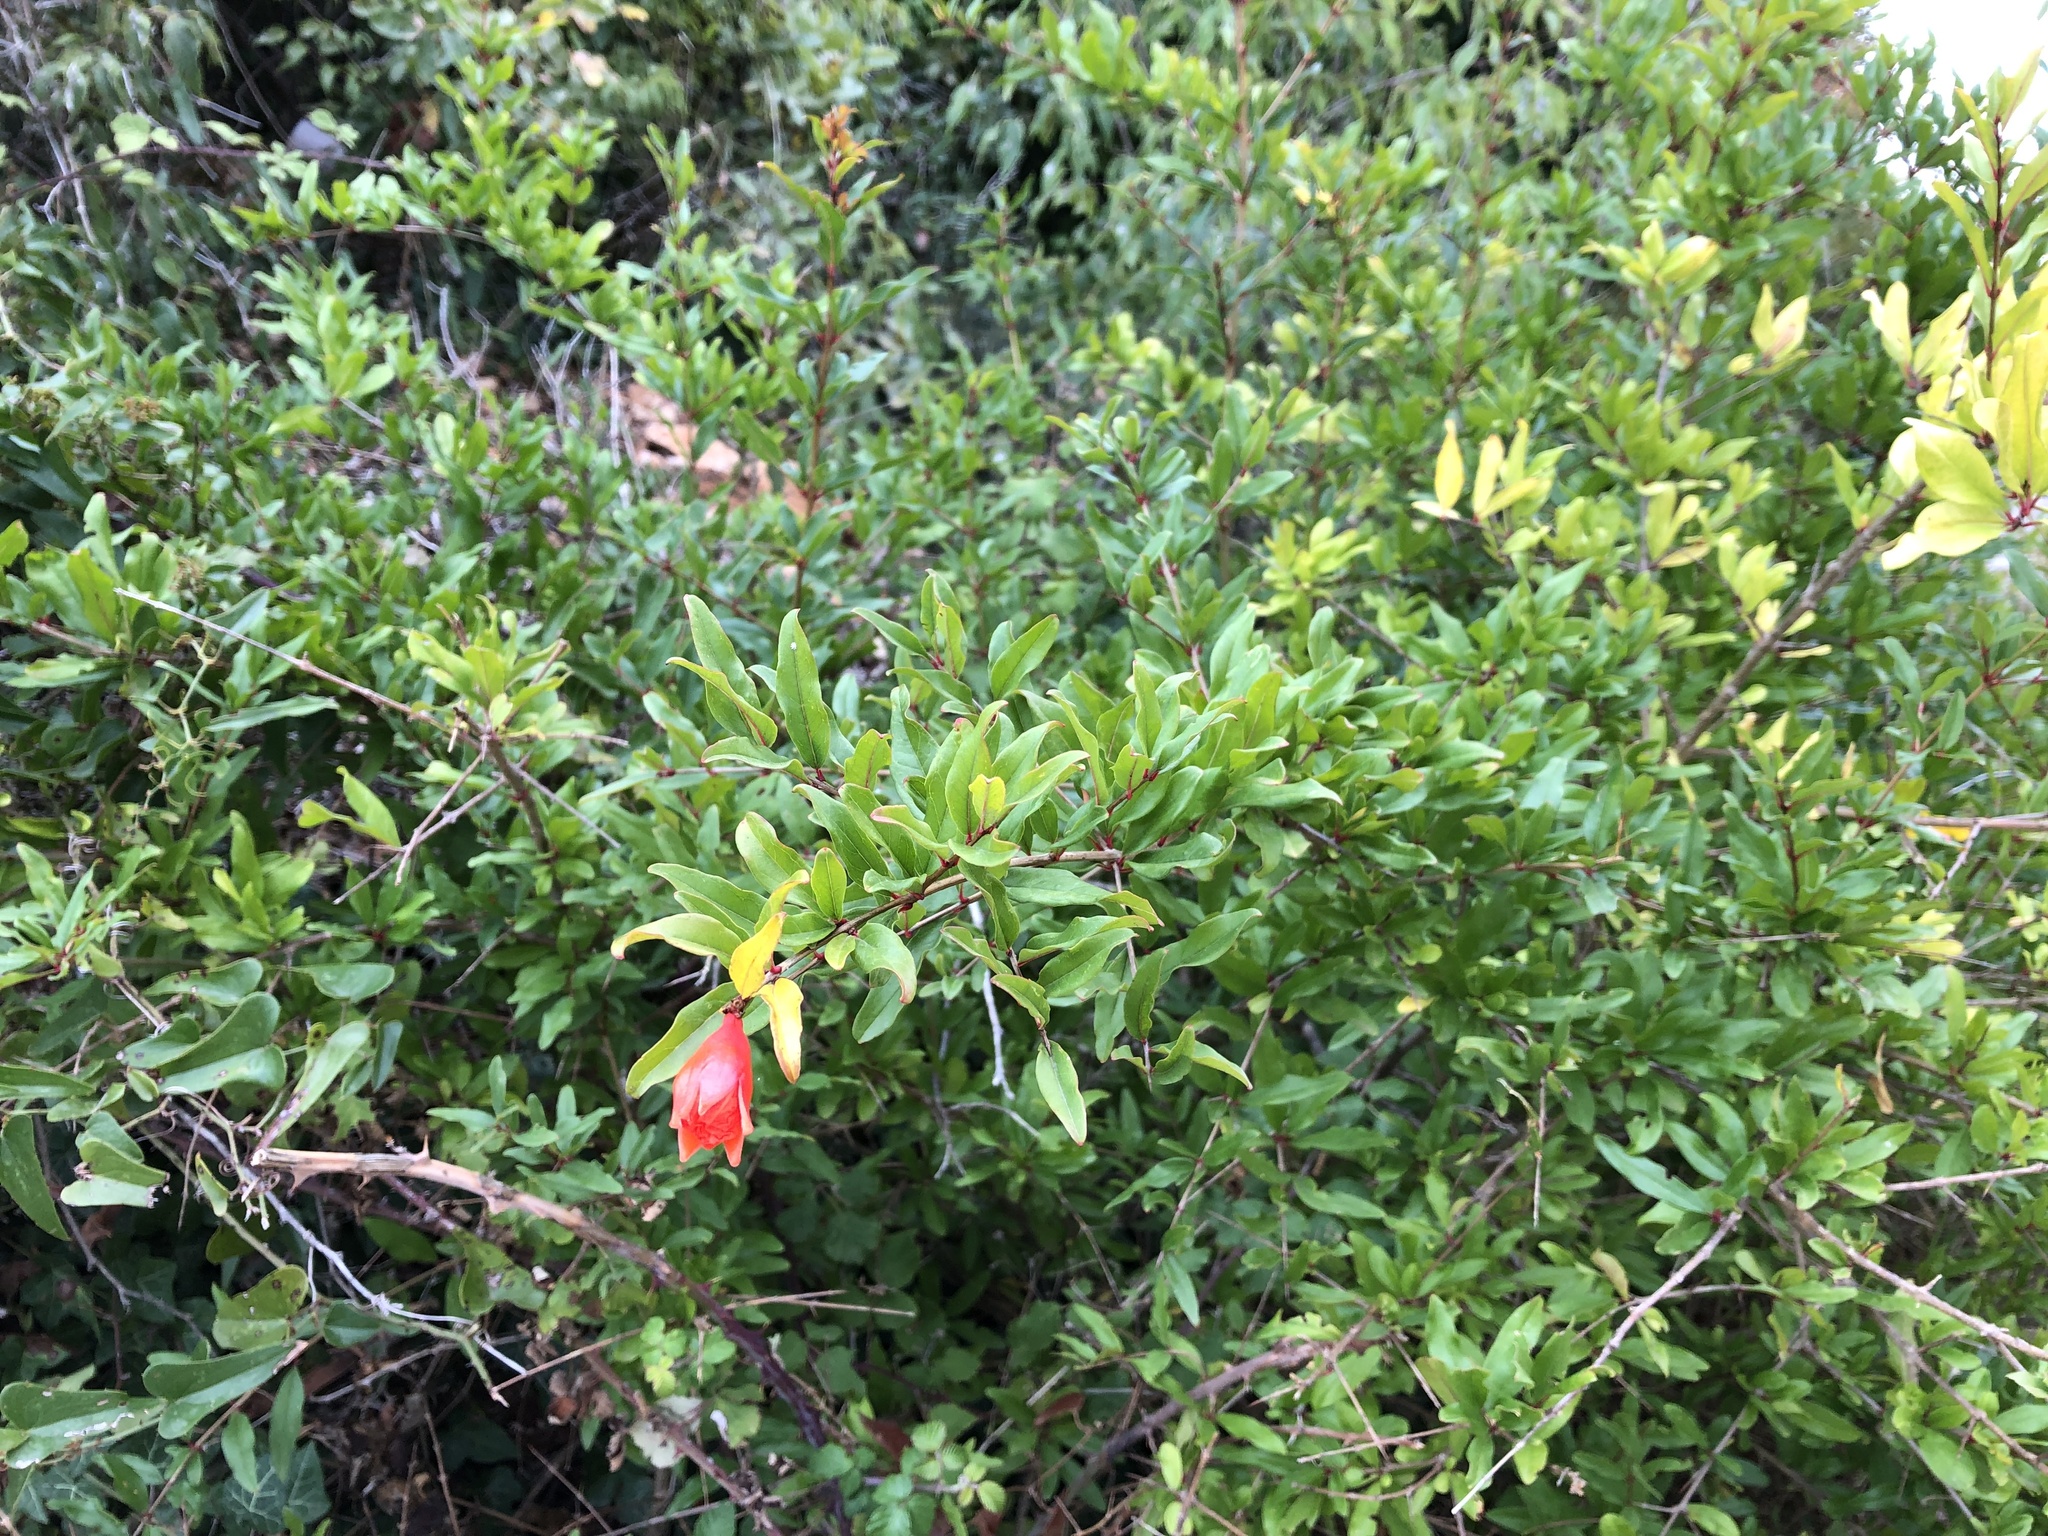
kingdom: Plantae
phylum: Tracheophyta
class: Magnoliopsida
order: Myrtales
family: Lythraceae
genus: Punica
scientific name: Punica granatum
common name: Pomegranate
